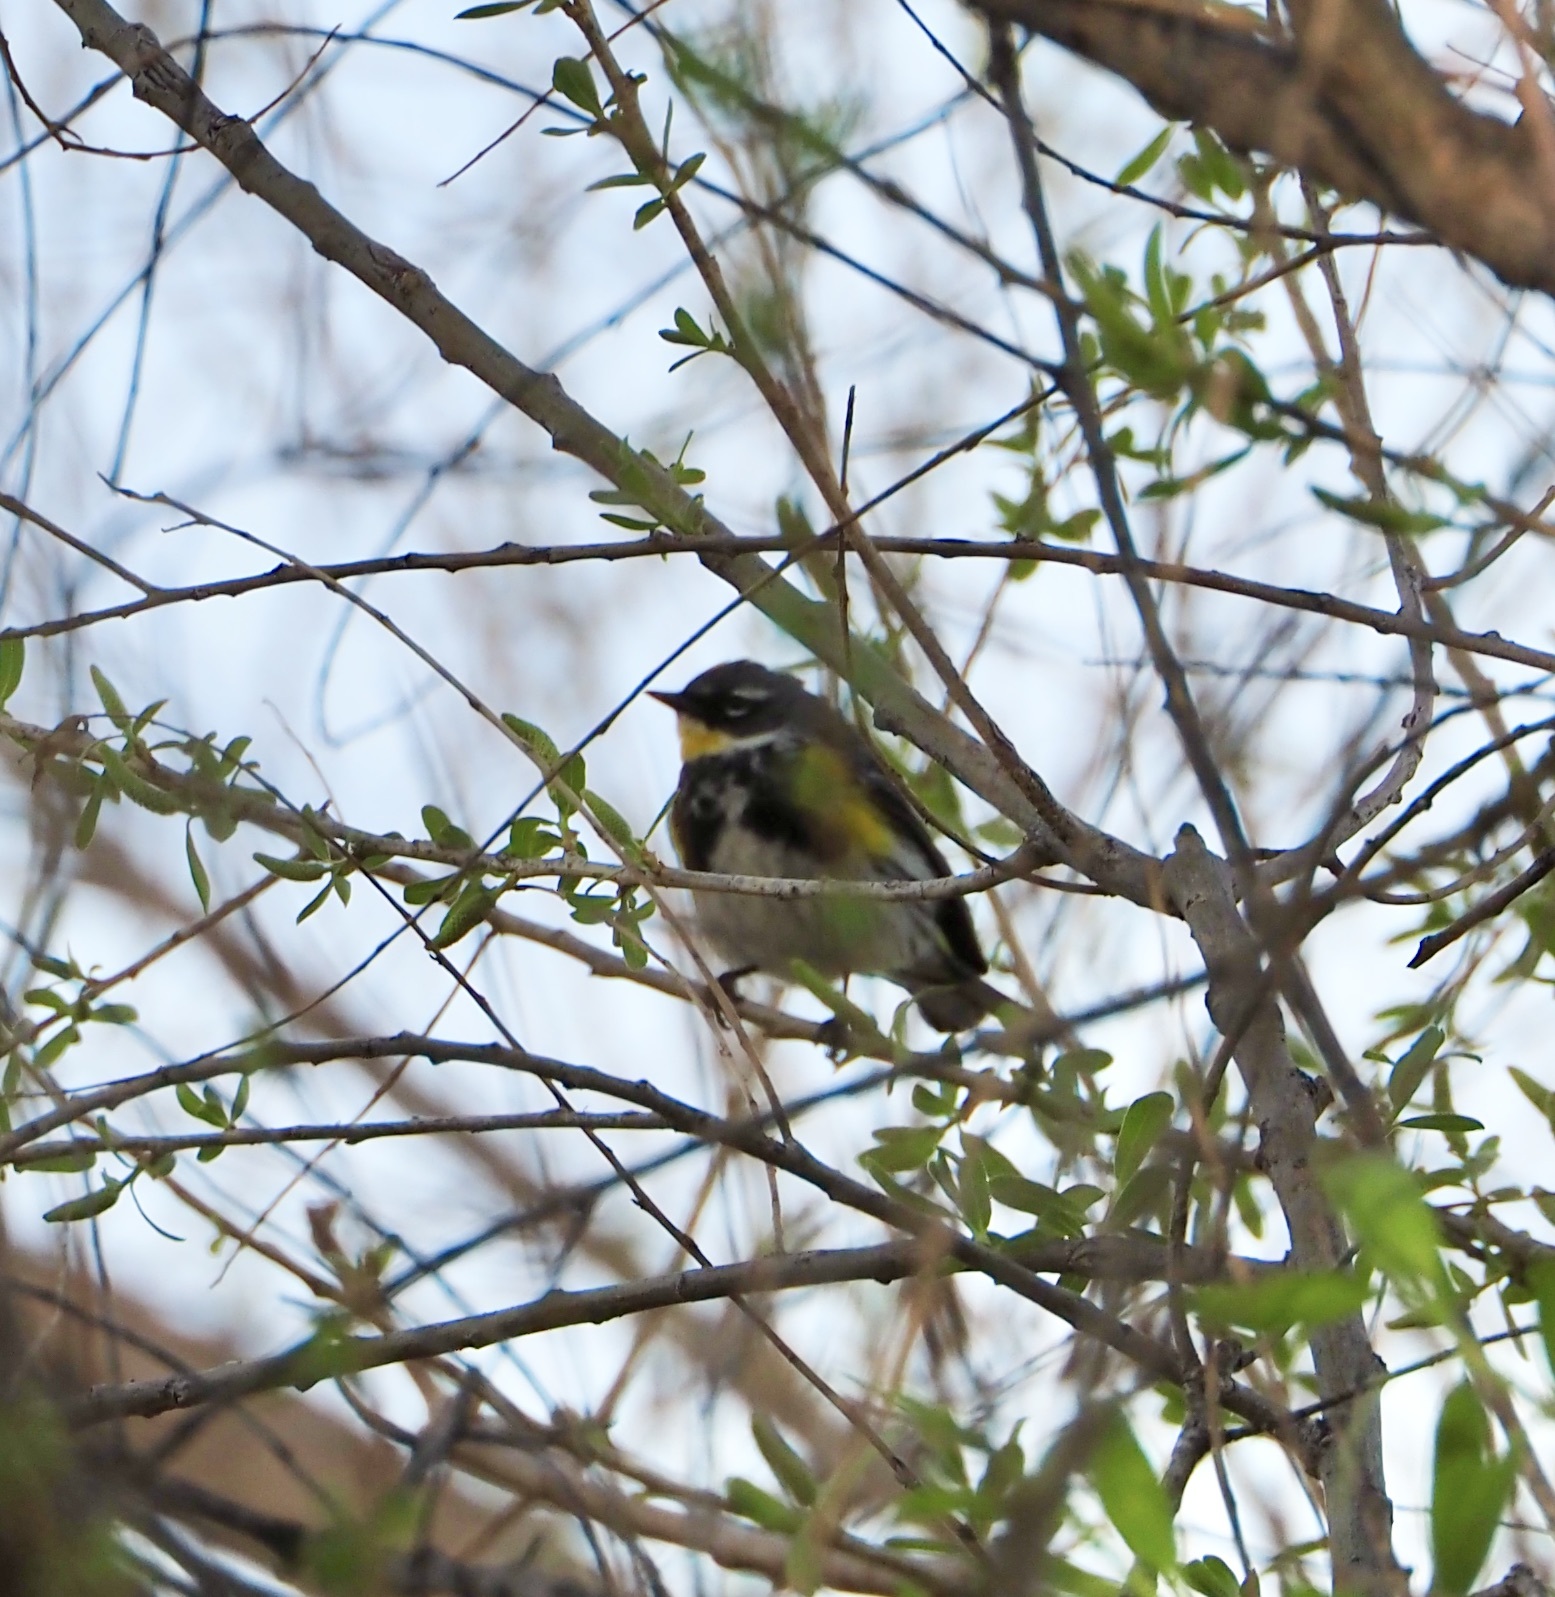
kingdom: Animalia
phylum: Chordata
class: Aves
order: Passeriformes
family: Parulidae
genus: Setophaga
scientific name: Setophaga
